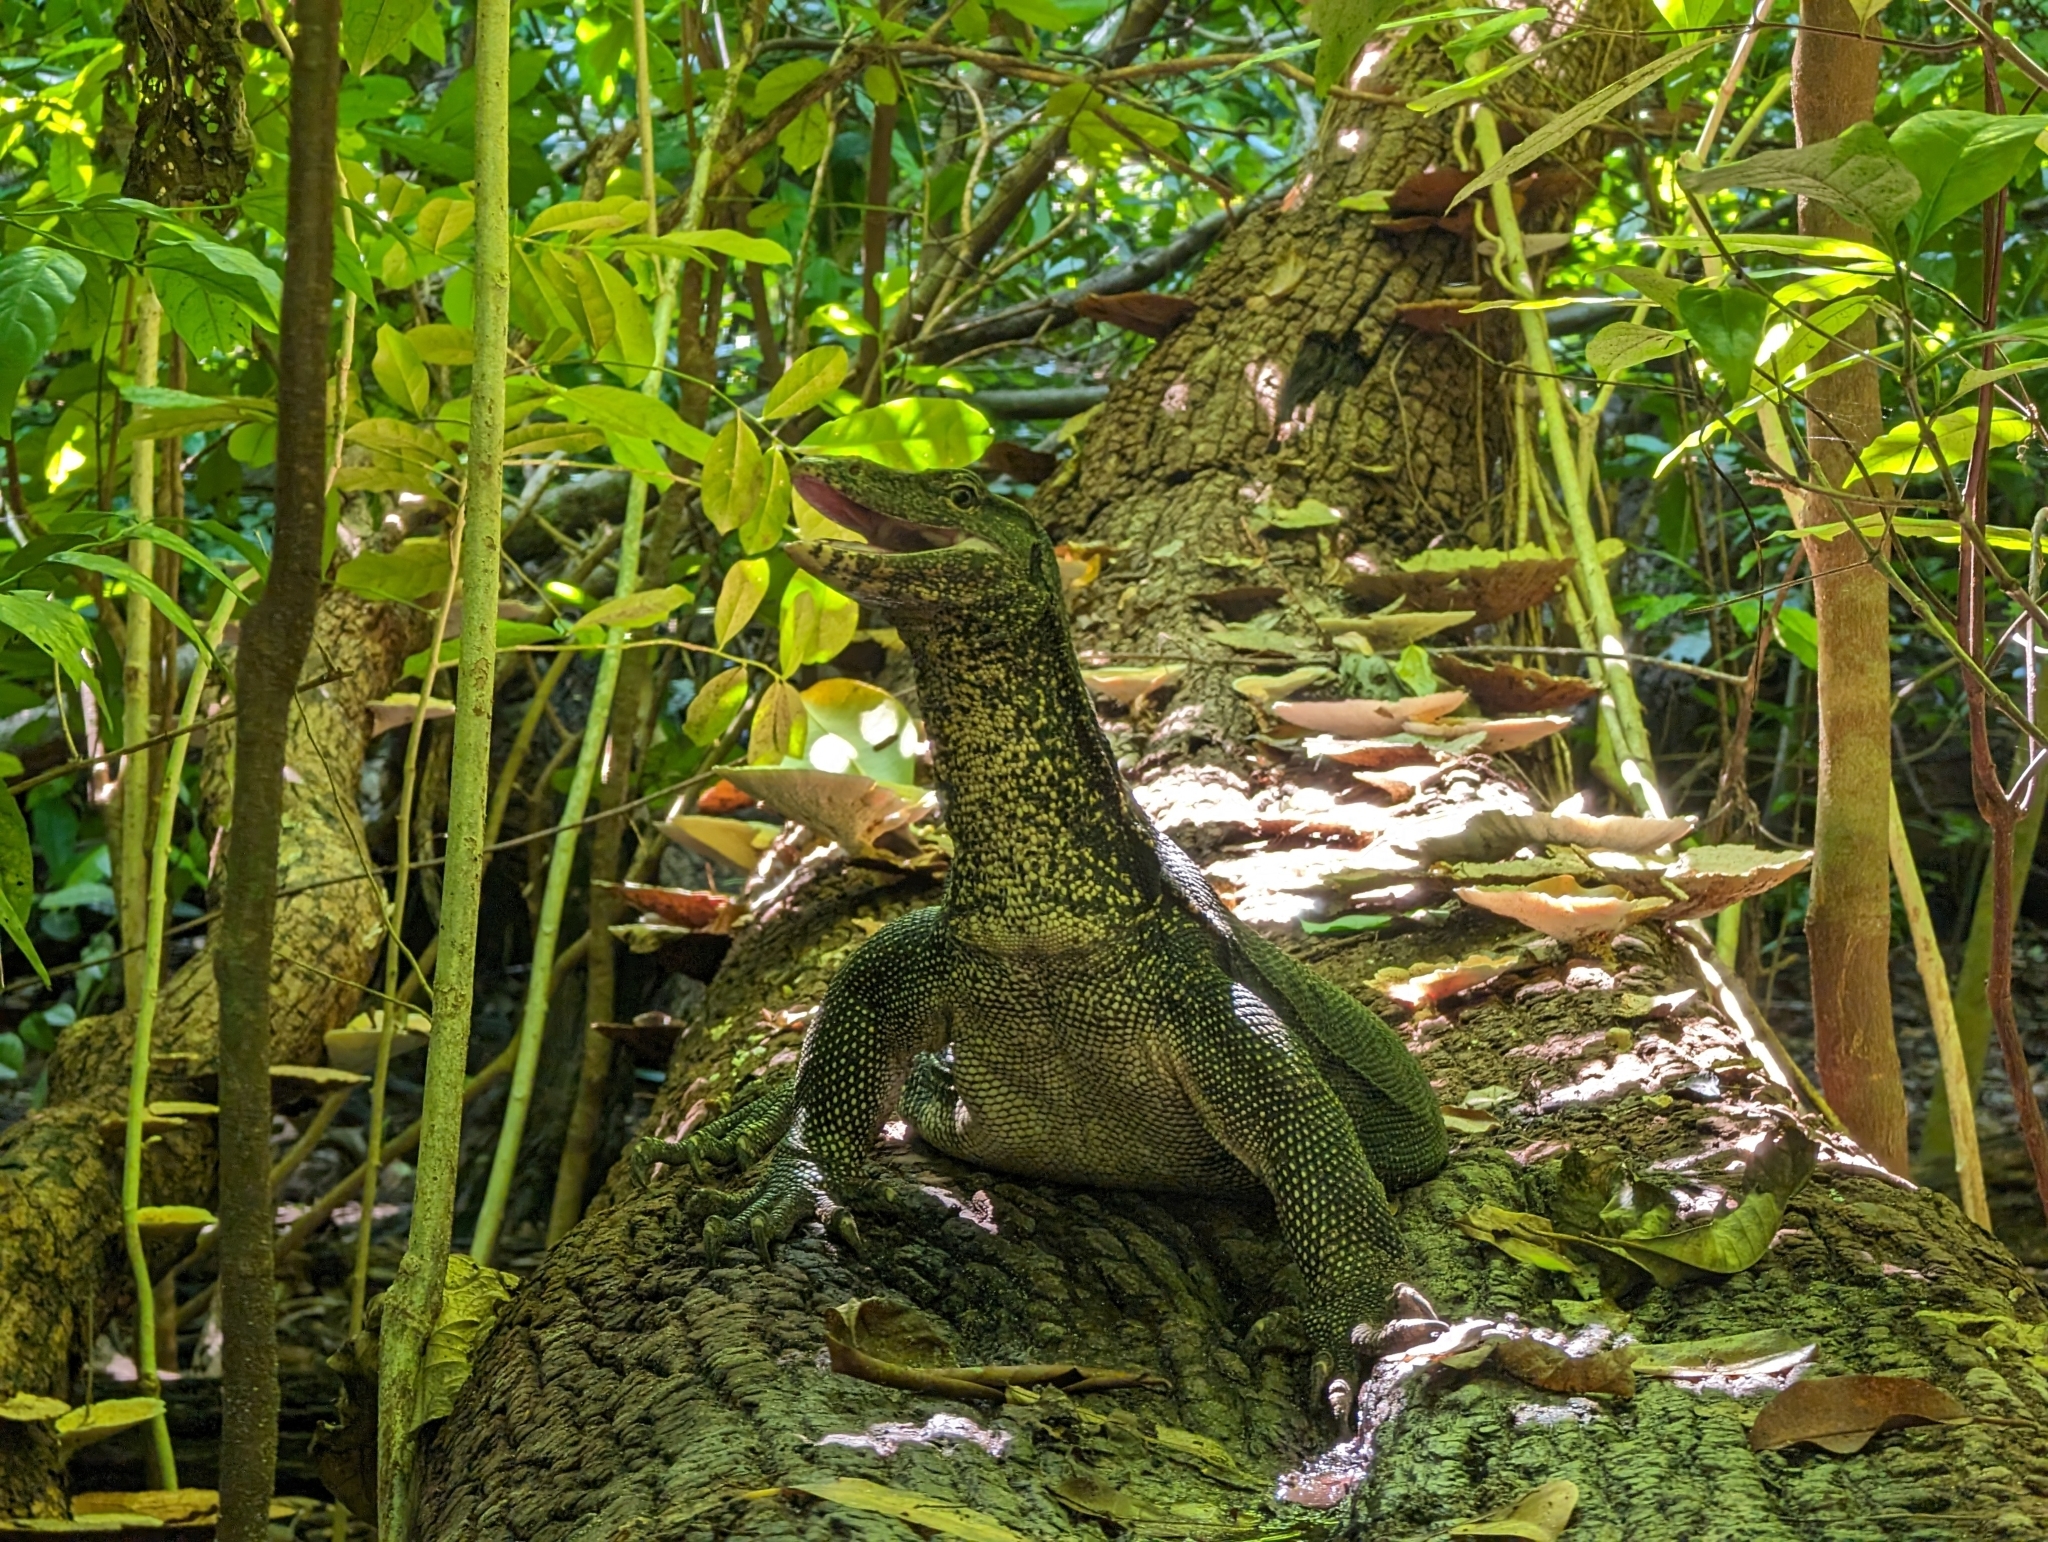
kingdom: Animalia
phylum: Chordata
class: Squamata
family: Varanidae
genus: Varanus
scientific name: Varanus salvator
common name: Common water monitor
